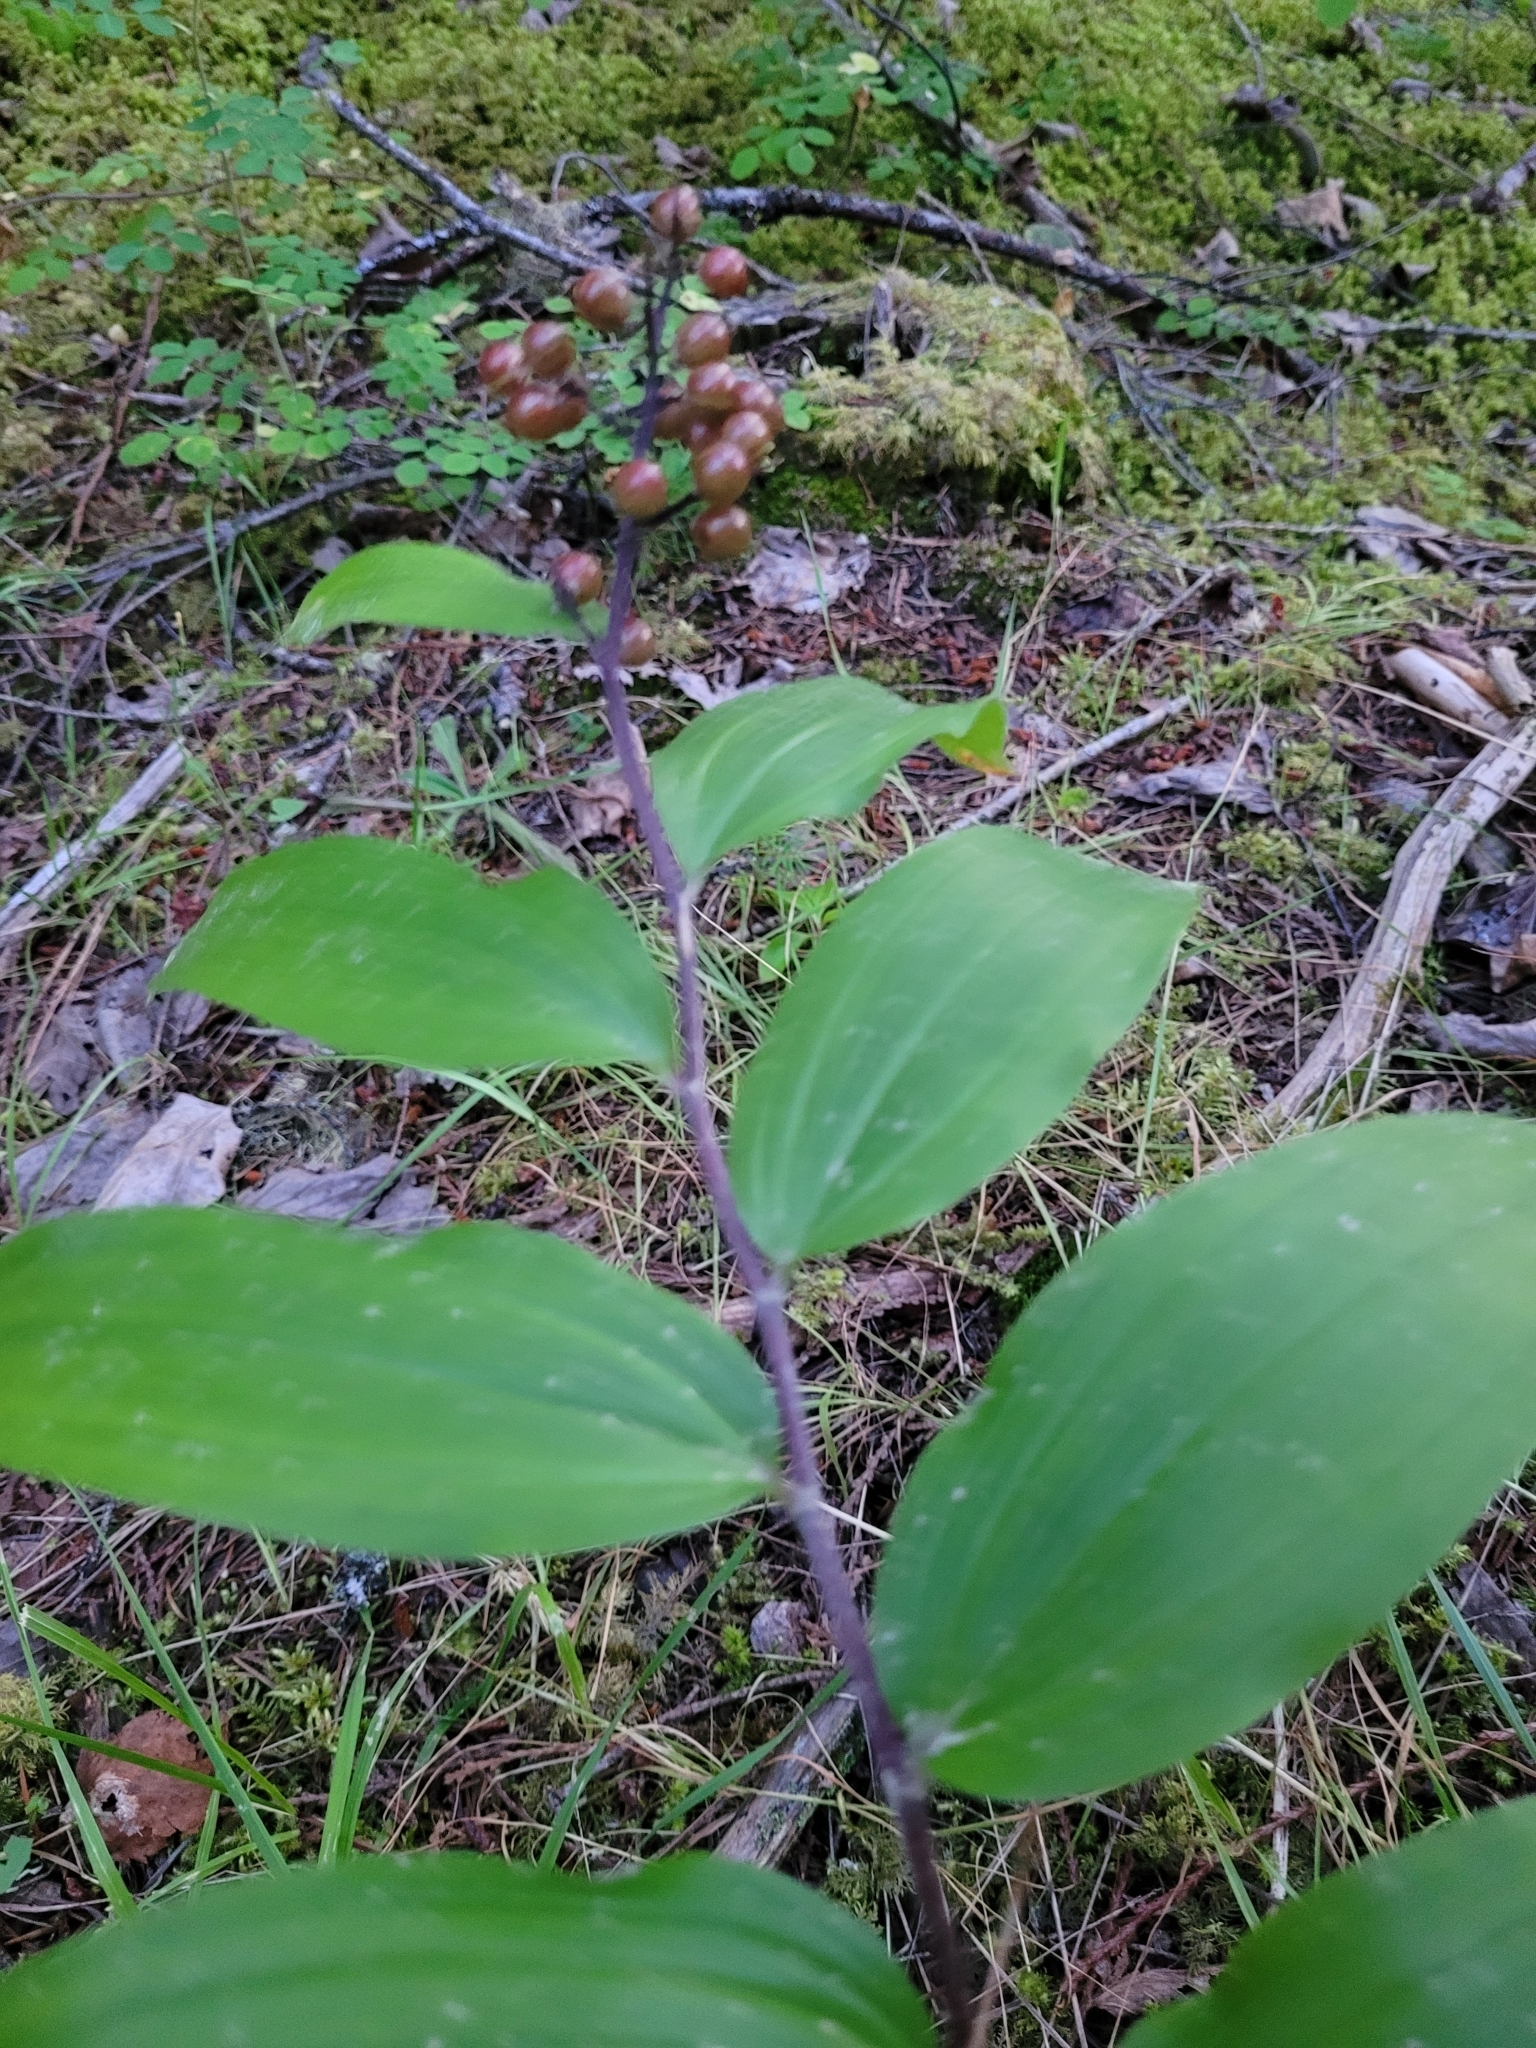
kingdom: Plantae
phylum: Tracheophyta
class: Liliopsida
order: Asparagales
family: Asparagaceae
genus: Maianthemum
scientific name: Maianthemum racemosum
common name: False spikenard
